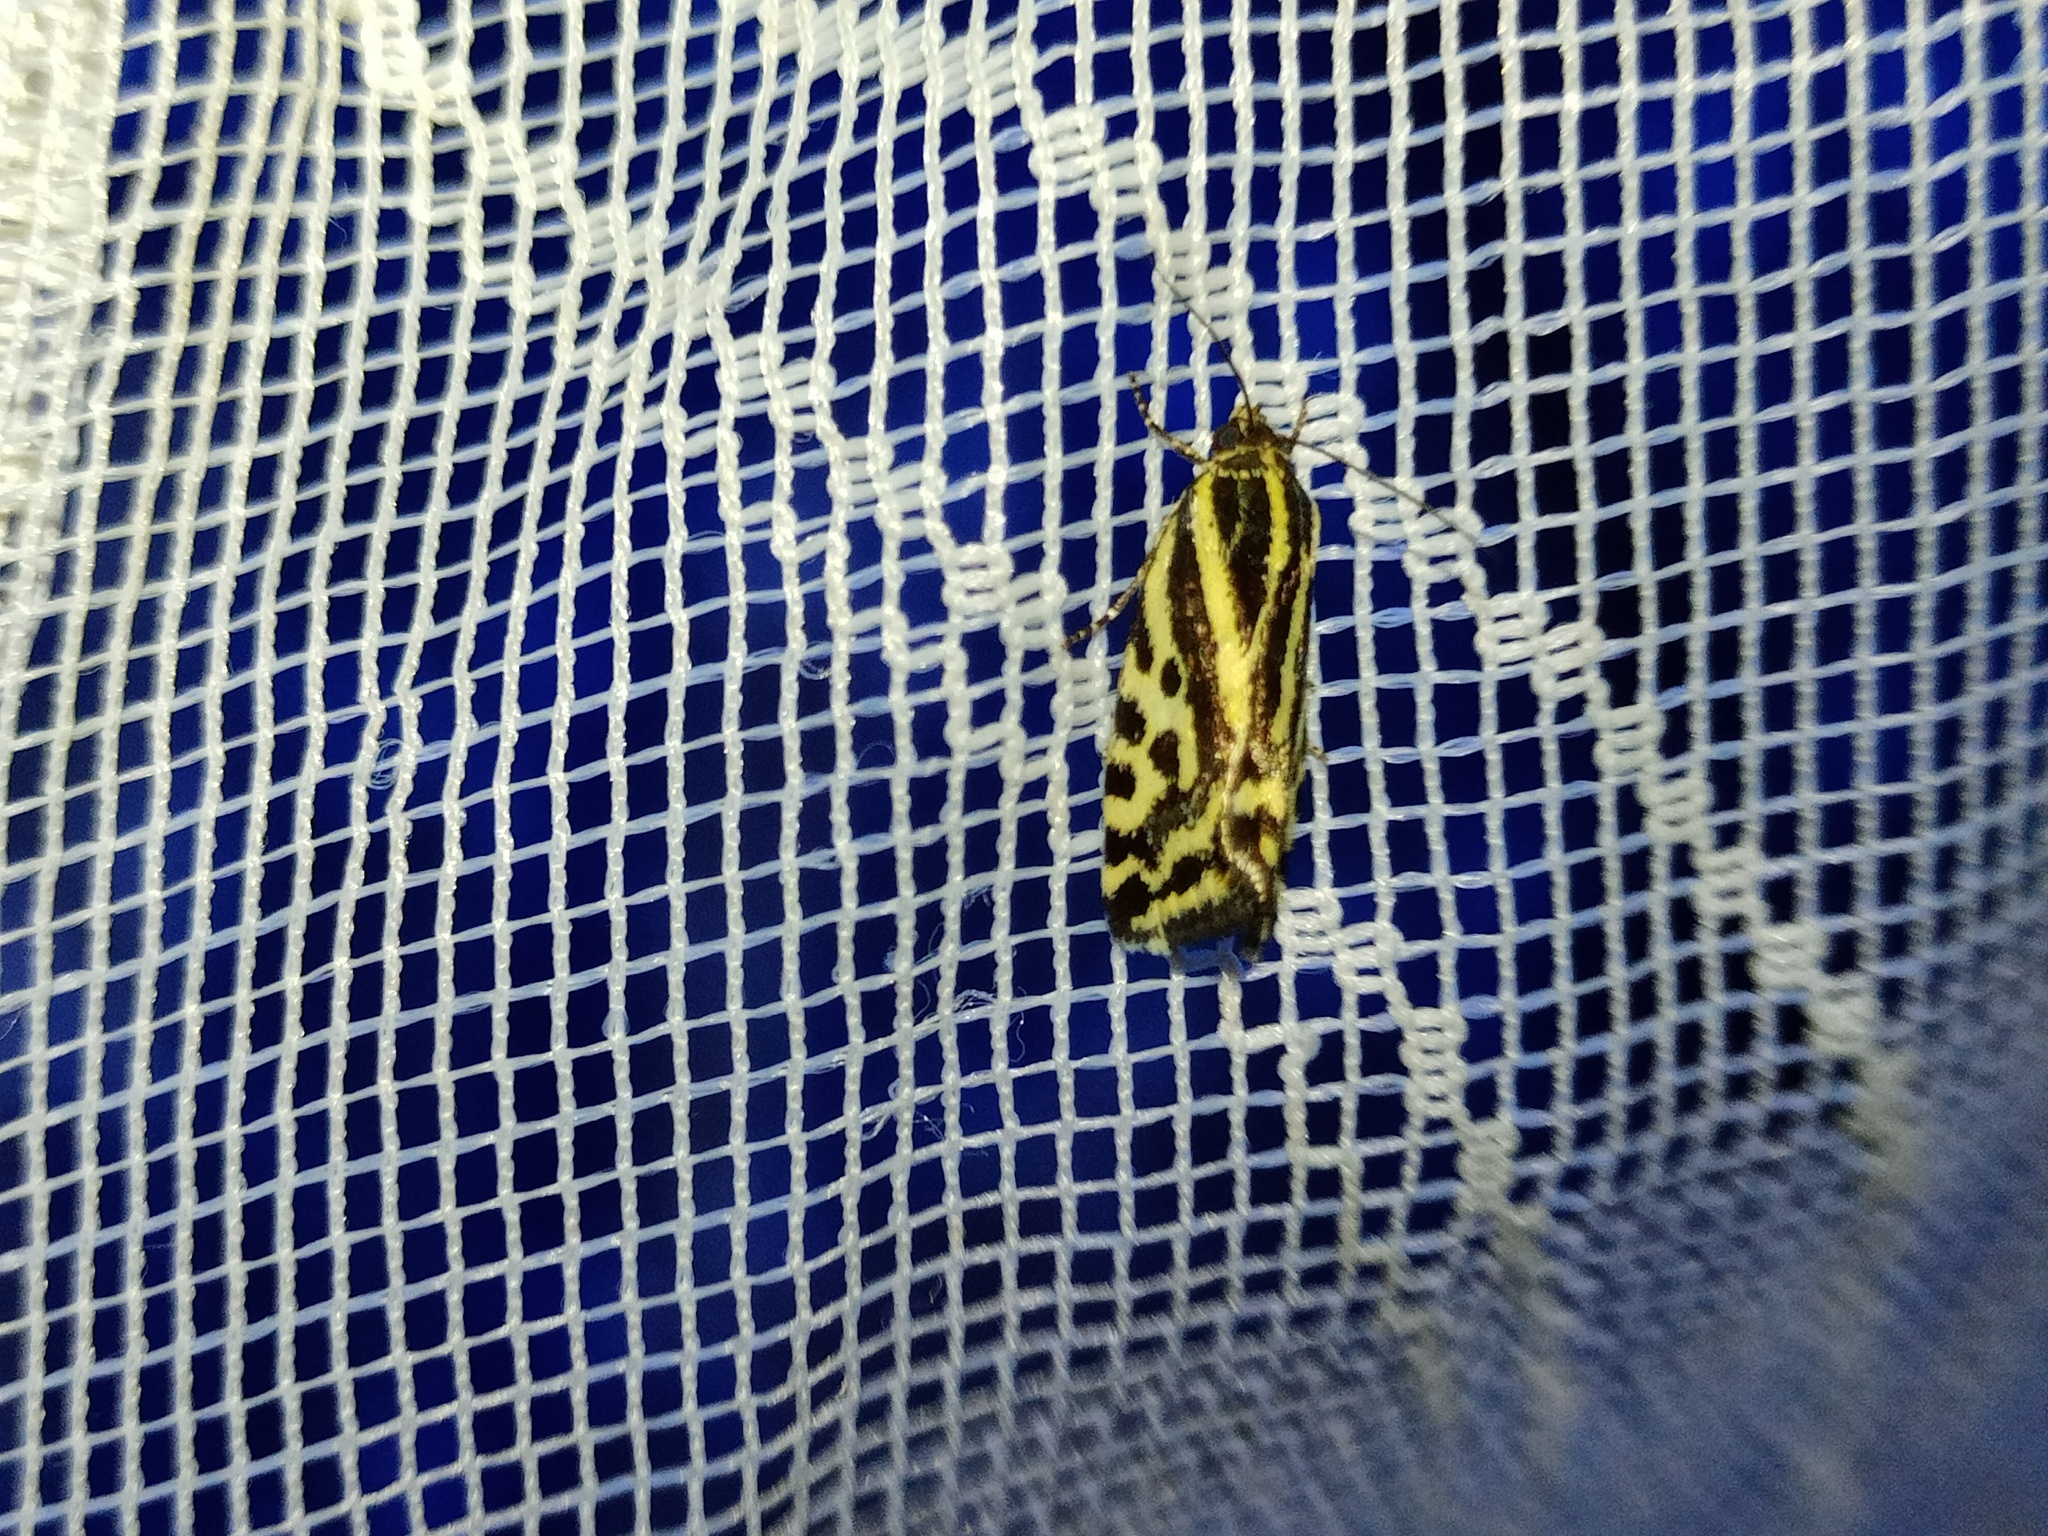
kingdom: Animalia
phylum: Arthropoda
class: Insecta
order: Lepidoptera
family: Noctuidae
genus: Acontia
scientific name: Acontia trabealis
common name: Spotted sulphur
